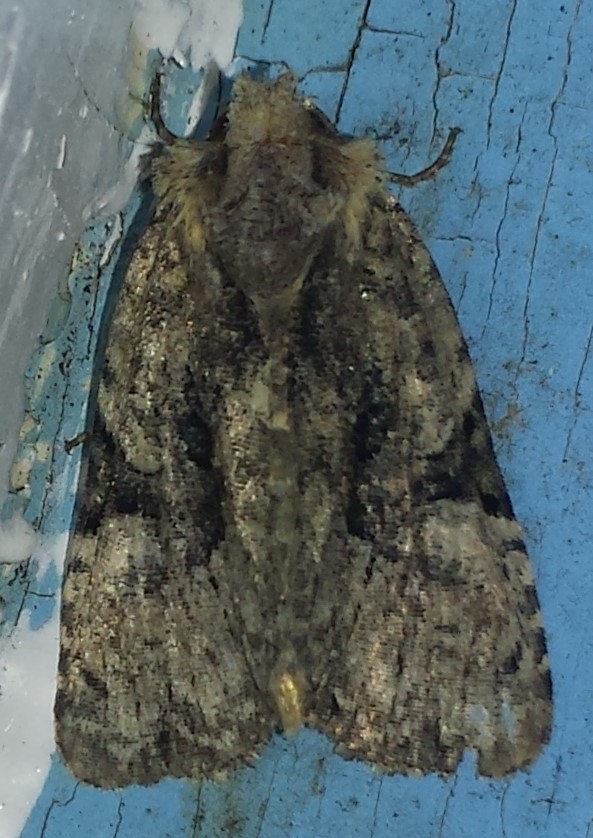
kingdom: Animalia
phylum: Arthropoda
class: Insecta
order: Lepidoptera
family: Noctuidae
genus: Oligia
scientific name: Oligia modica
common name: Black-banded brocade
